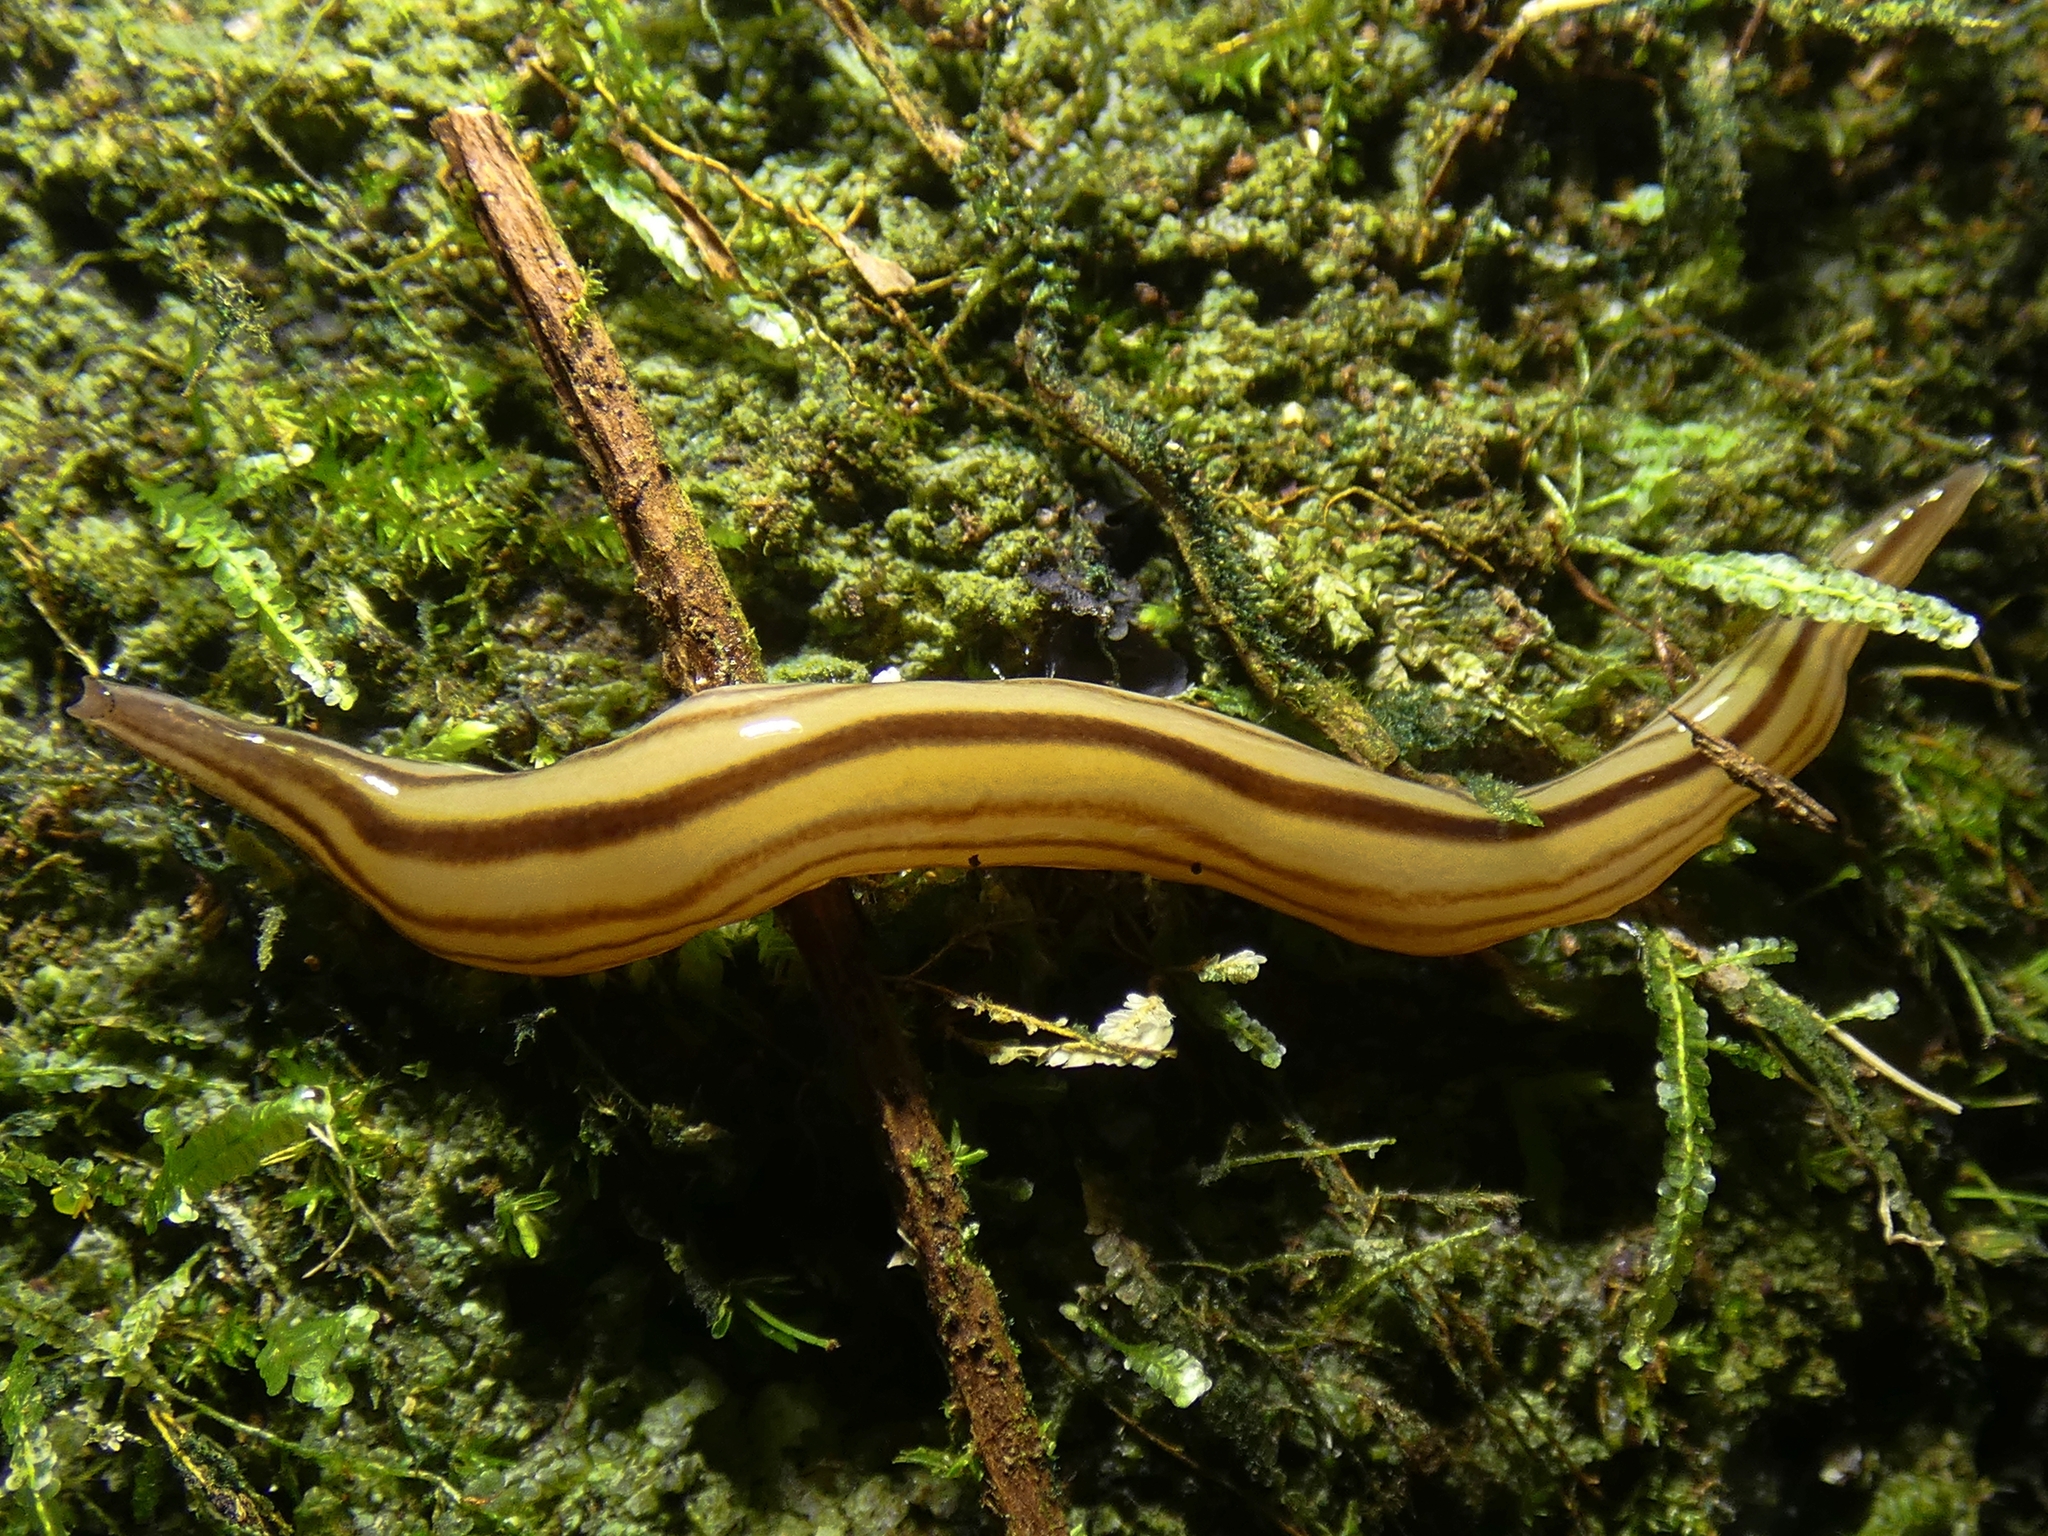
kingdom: Animalia
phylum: Platyhelminthes
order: Tricladida
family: Geoplanidae
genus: Australopacifica
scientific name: Australopacifica regina
